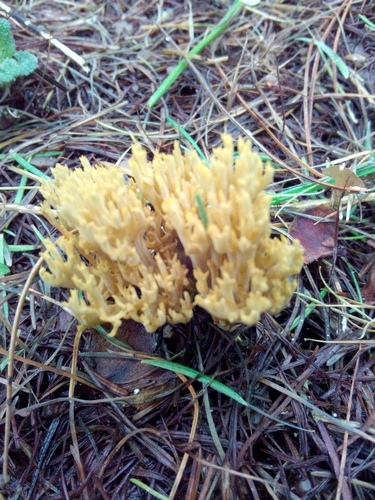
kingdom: Fungi
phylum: Basidiomycota
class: Agaricomycetes
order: Gomphales
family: Gomphaceae
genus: Ramaria
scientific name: Ramaria
